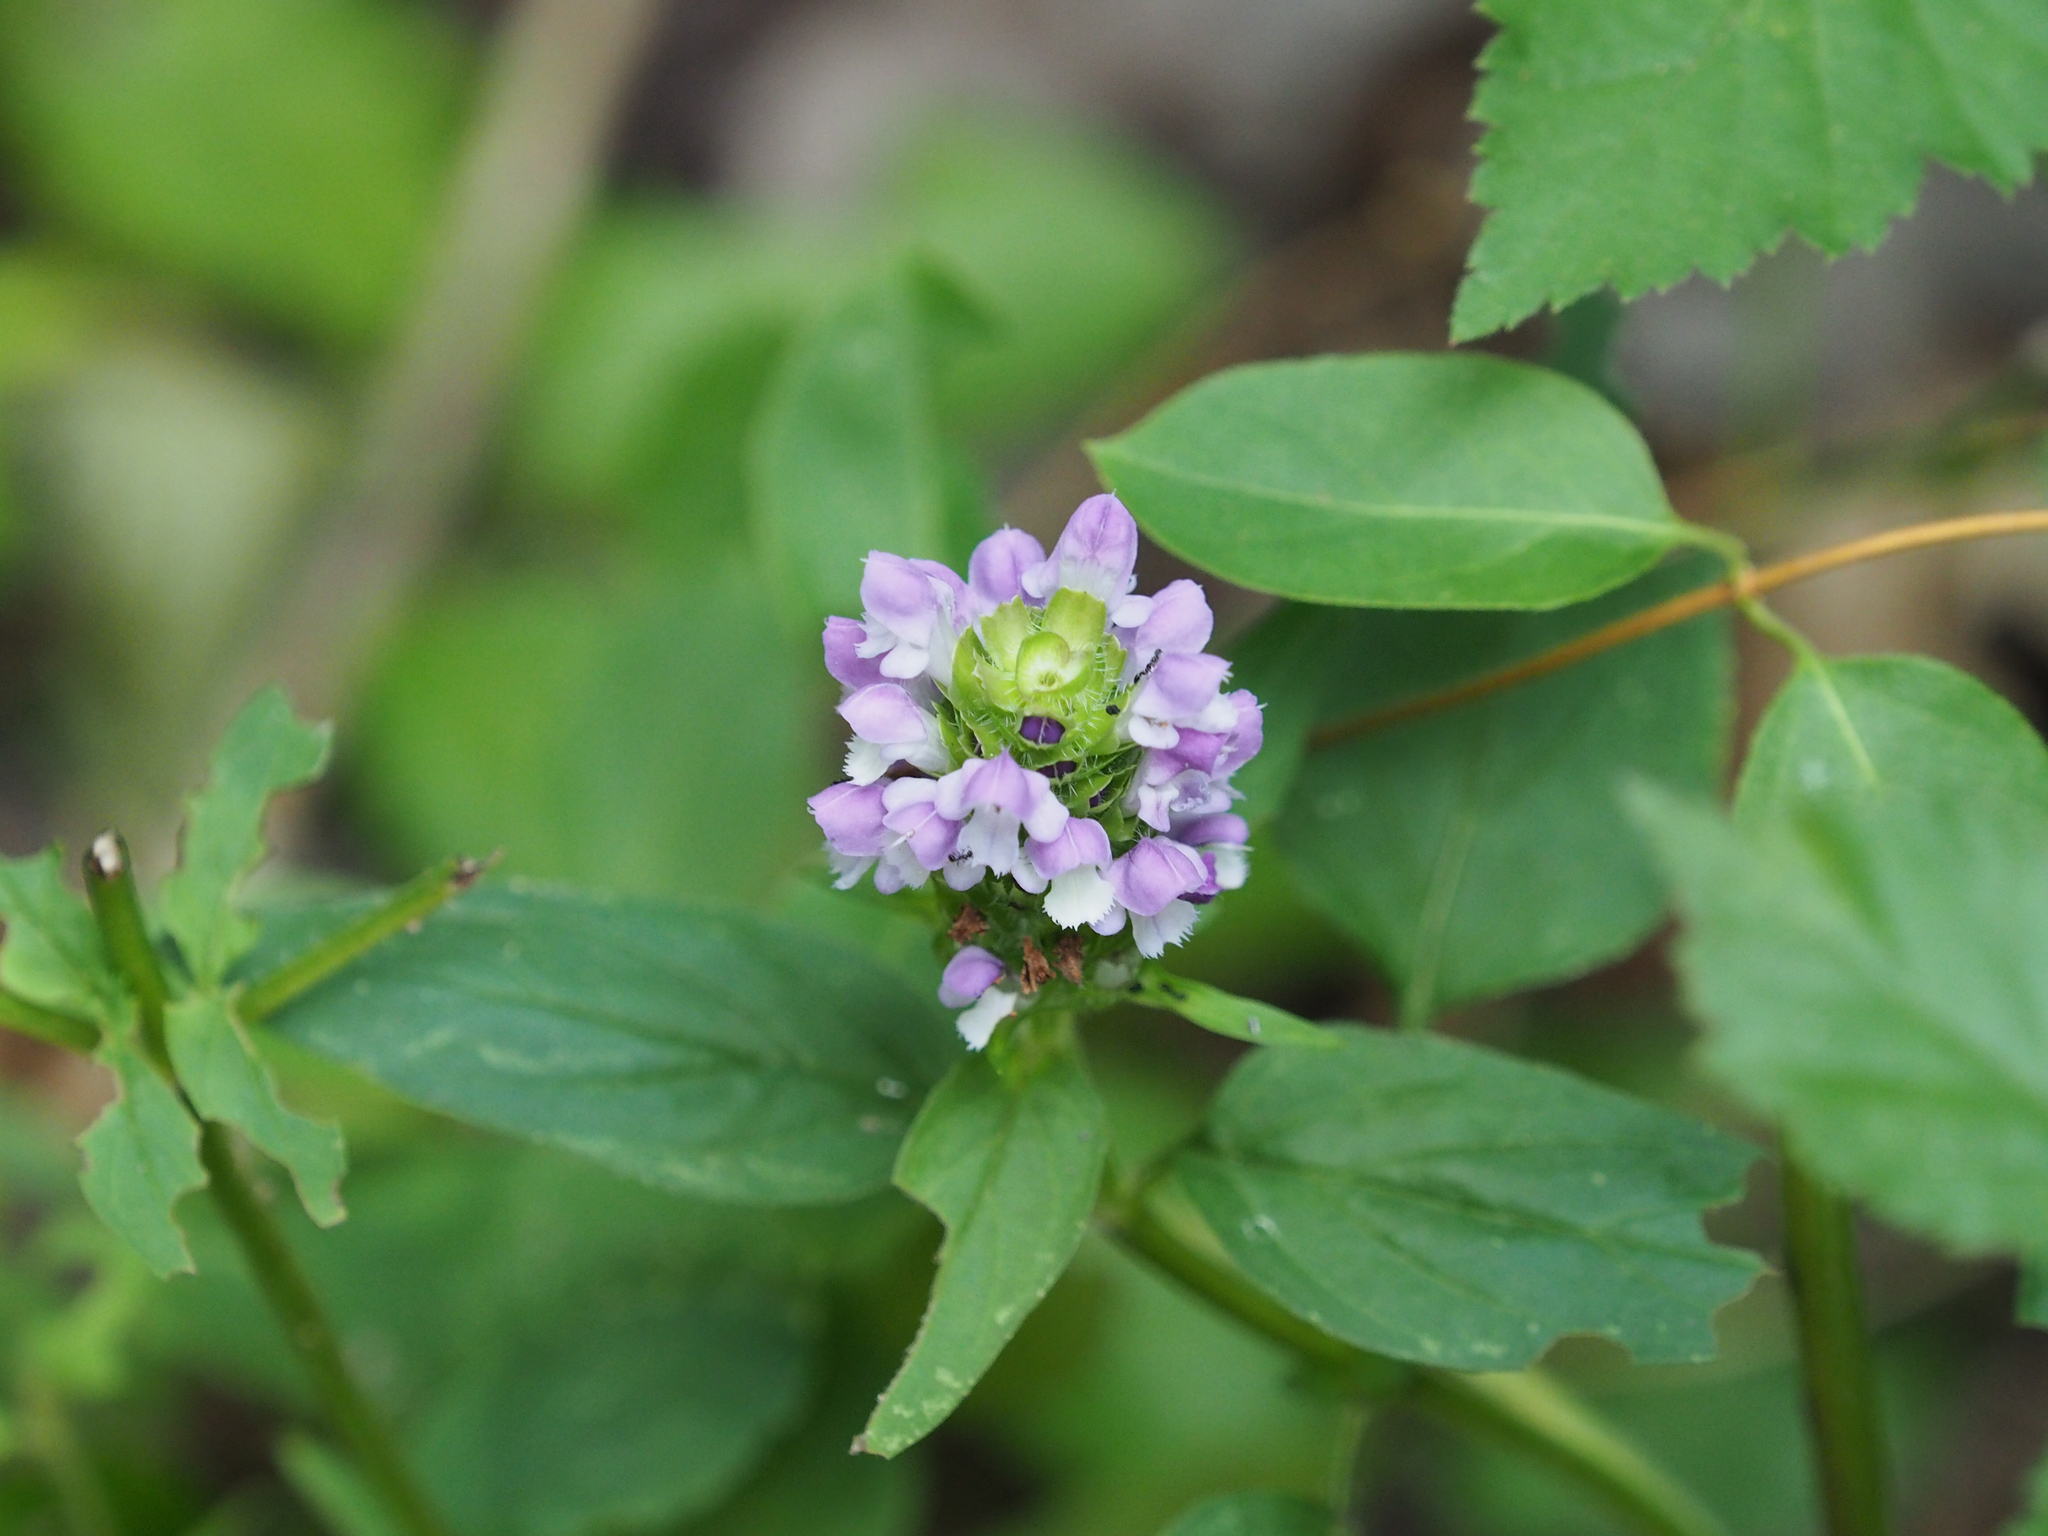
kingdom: Plantae
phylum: Tracheophyta
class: Magnoliopsida
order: Lamiales
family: Lamiaceae
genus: Prunella
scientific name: Prunella vulgaris
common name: Heal-all
